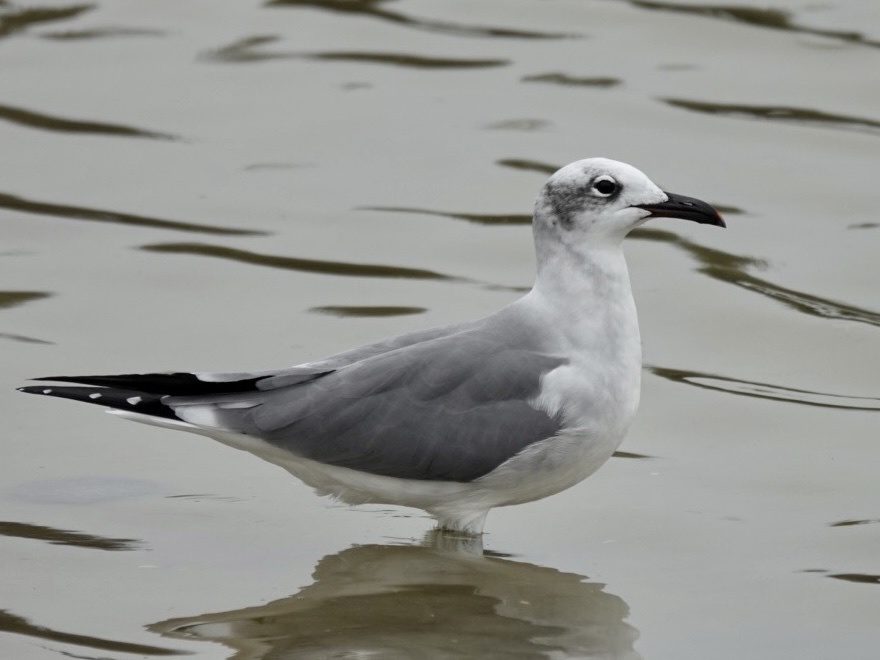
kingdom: Animalia
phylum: Chordata
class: Aves
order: Charadriiformes
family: Laridae
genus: Leucophaeus
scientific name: Leucophaeus atricilla
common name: Laughing gull
